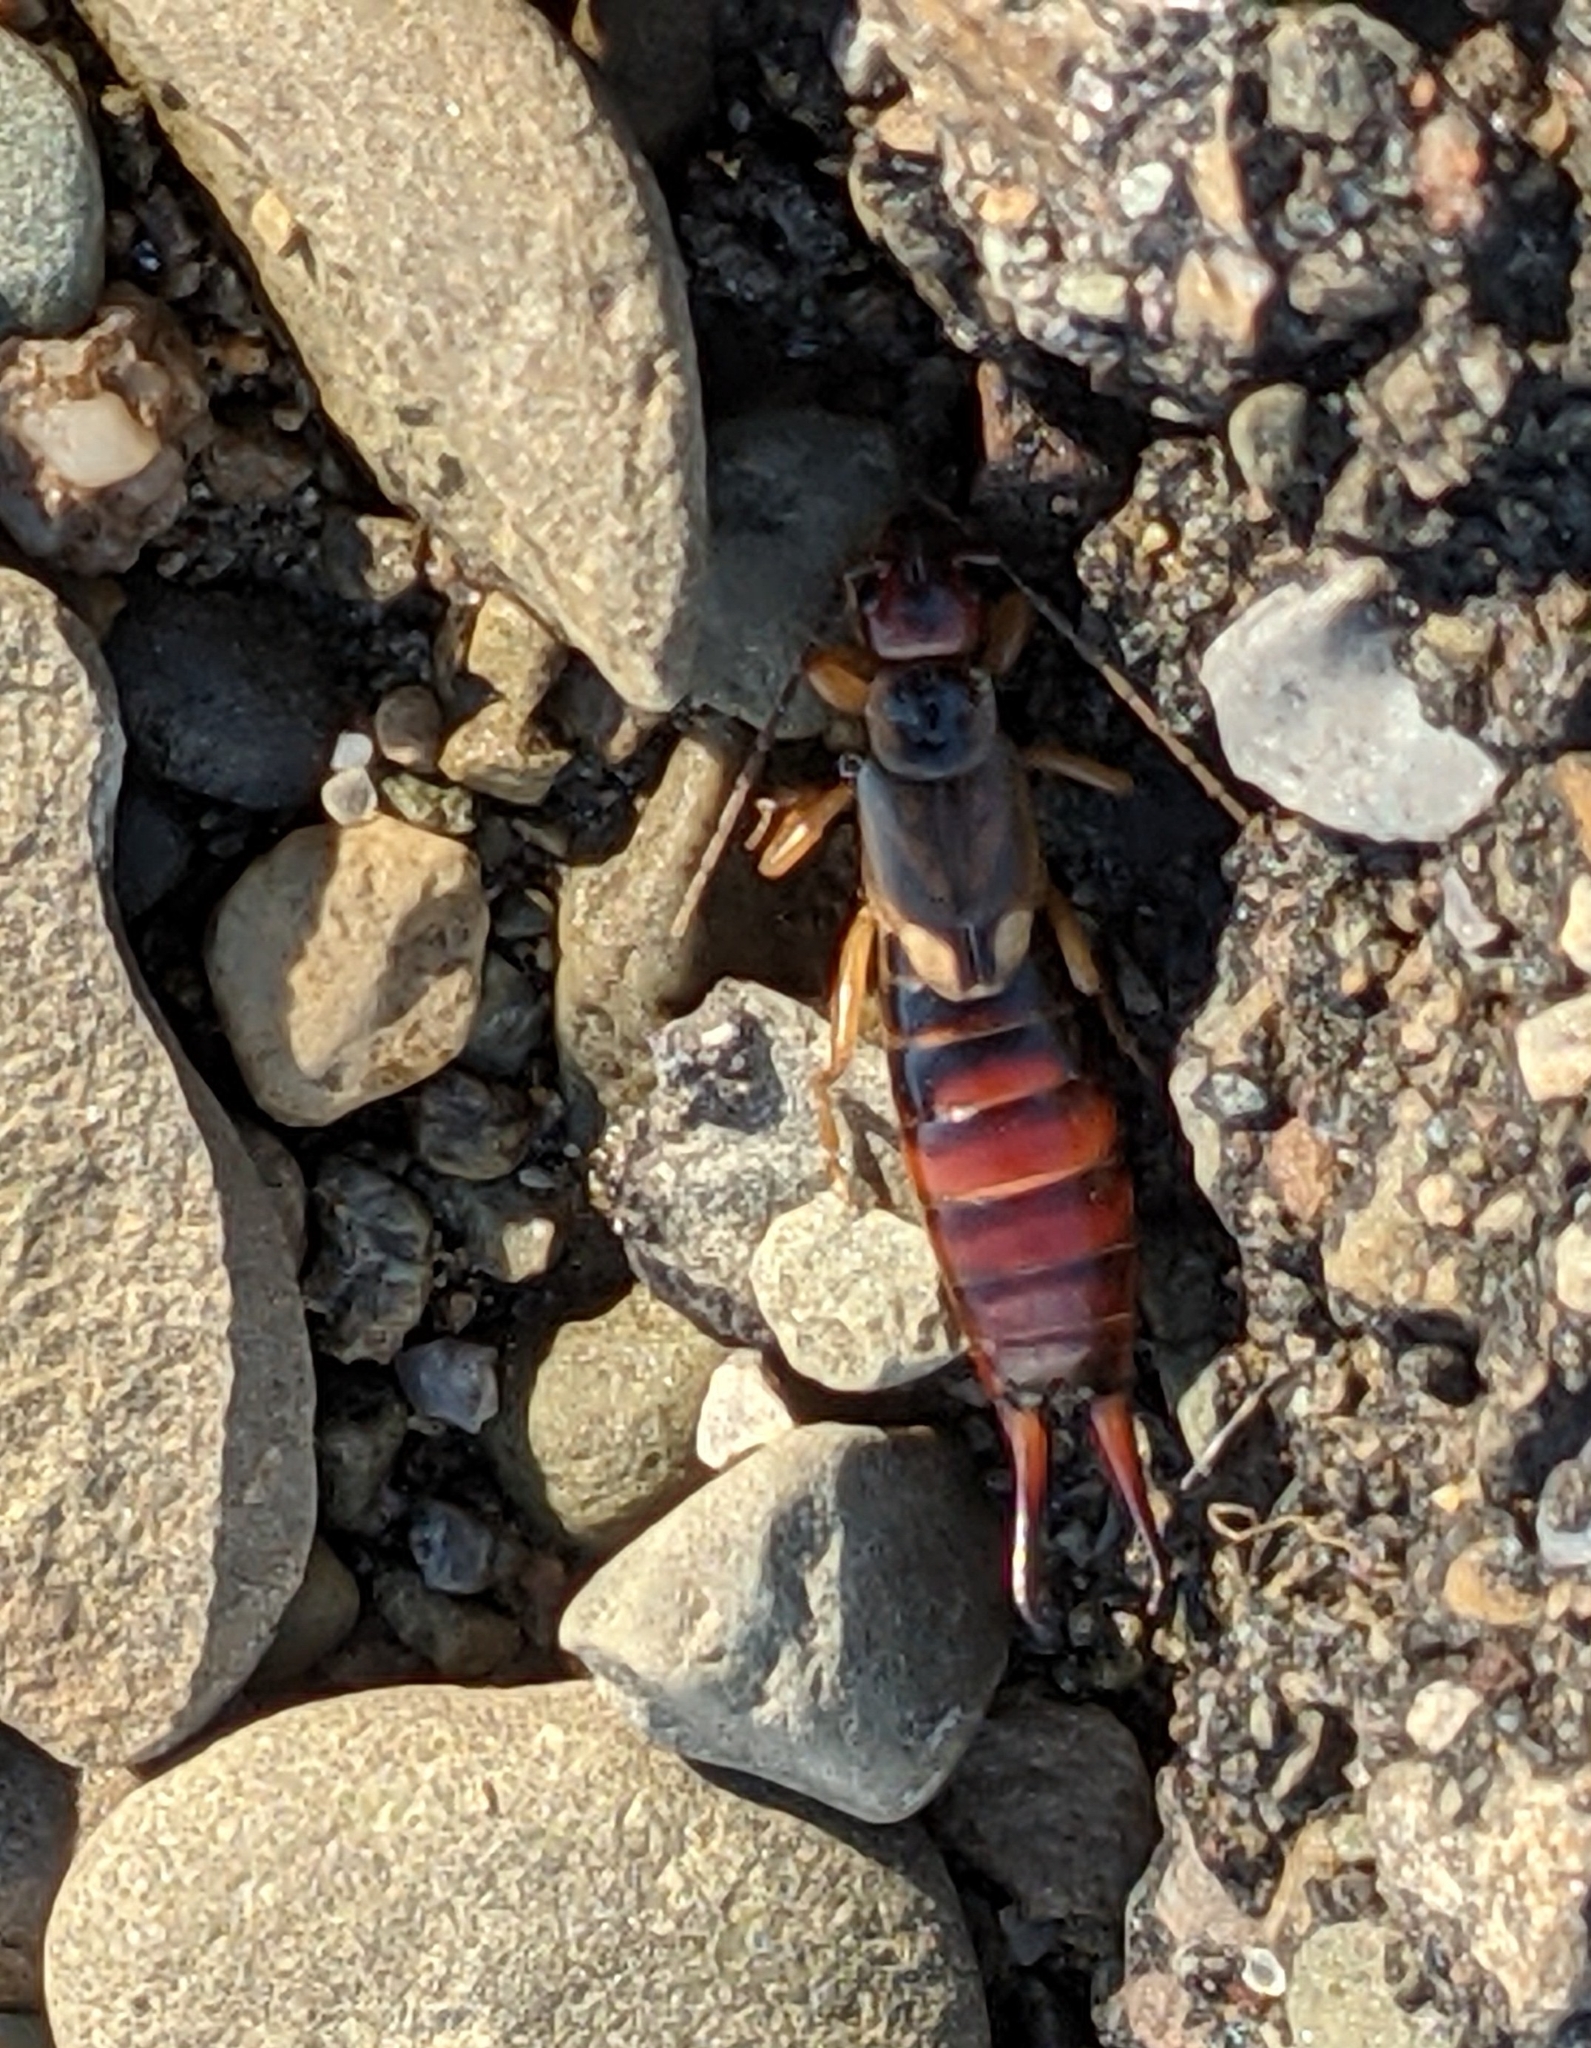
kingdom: Animalia
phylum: Arthropoda
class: Insecta
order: Dermaptera
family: Forficulidae
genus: Forficula
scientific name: Forficula
